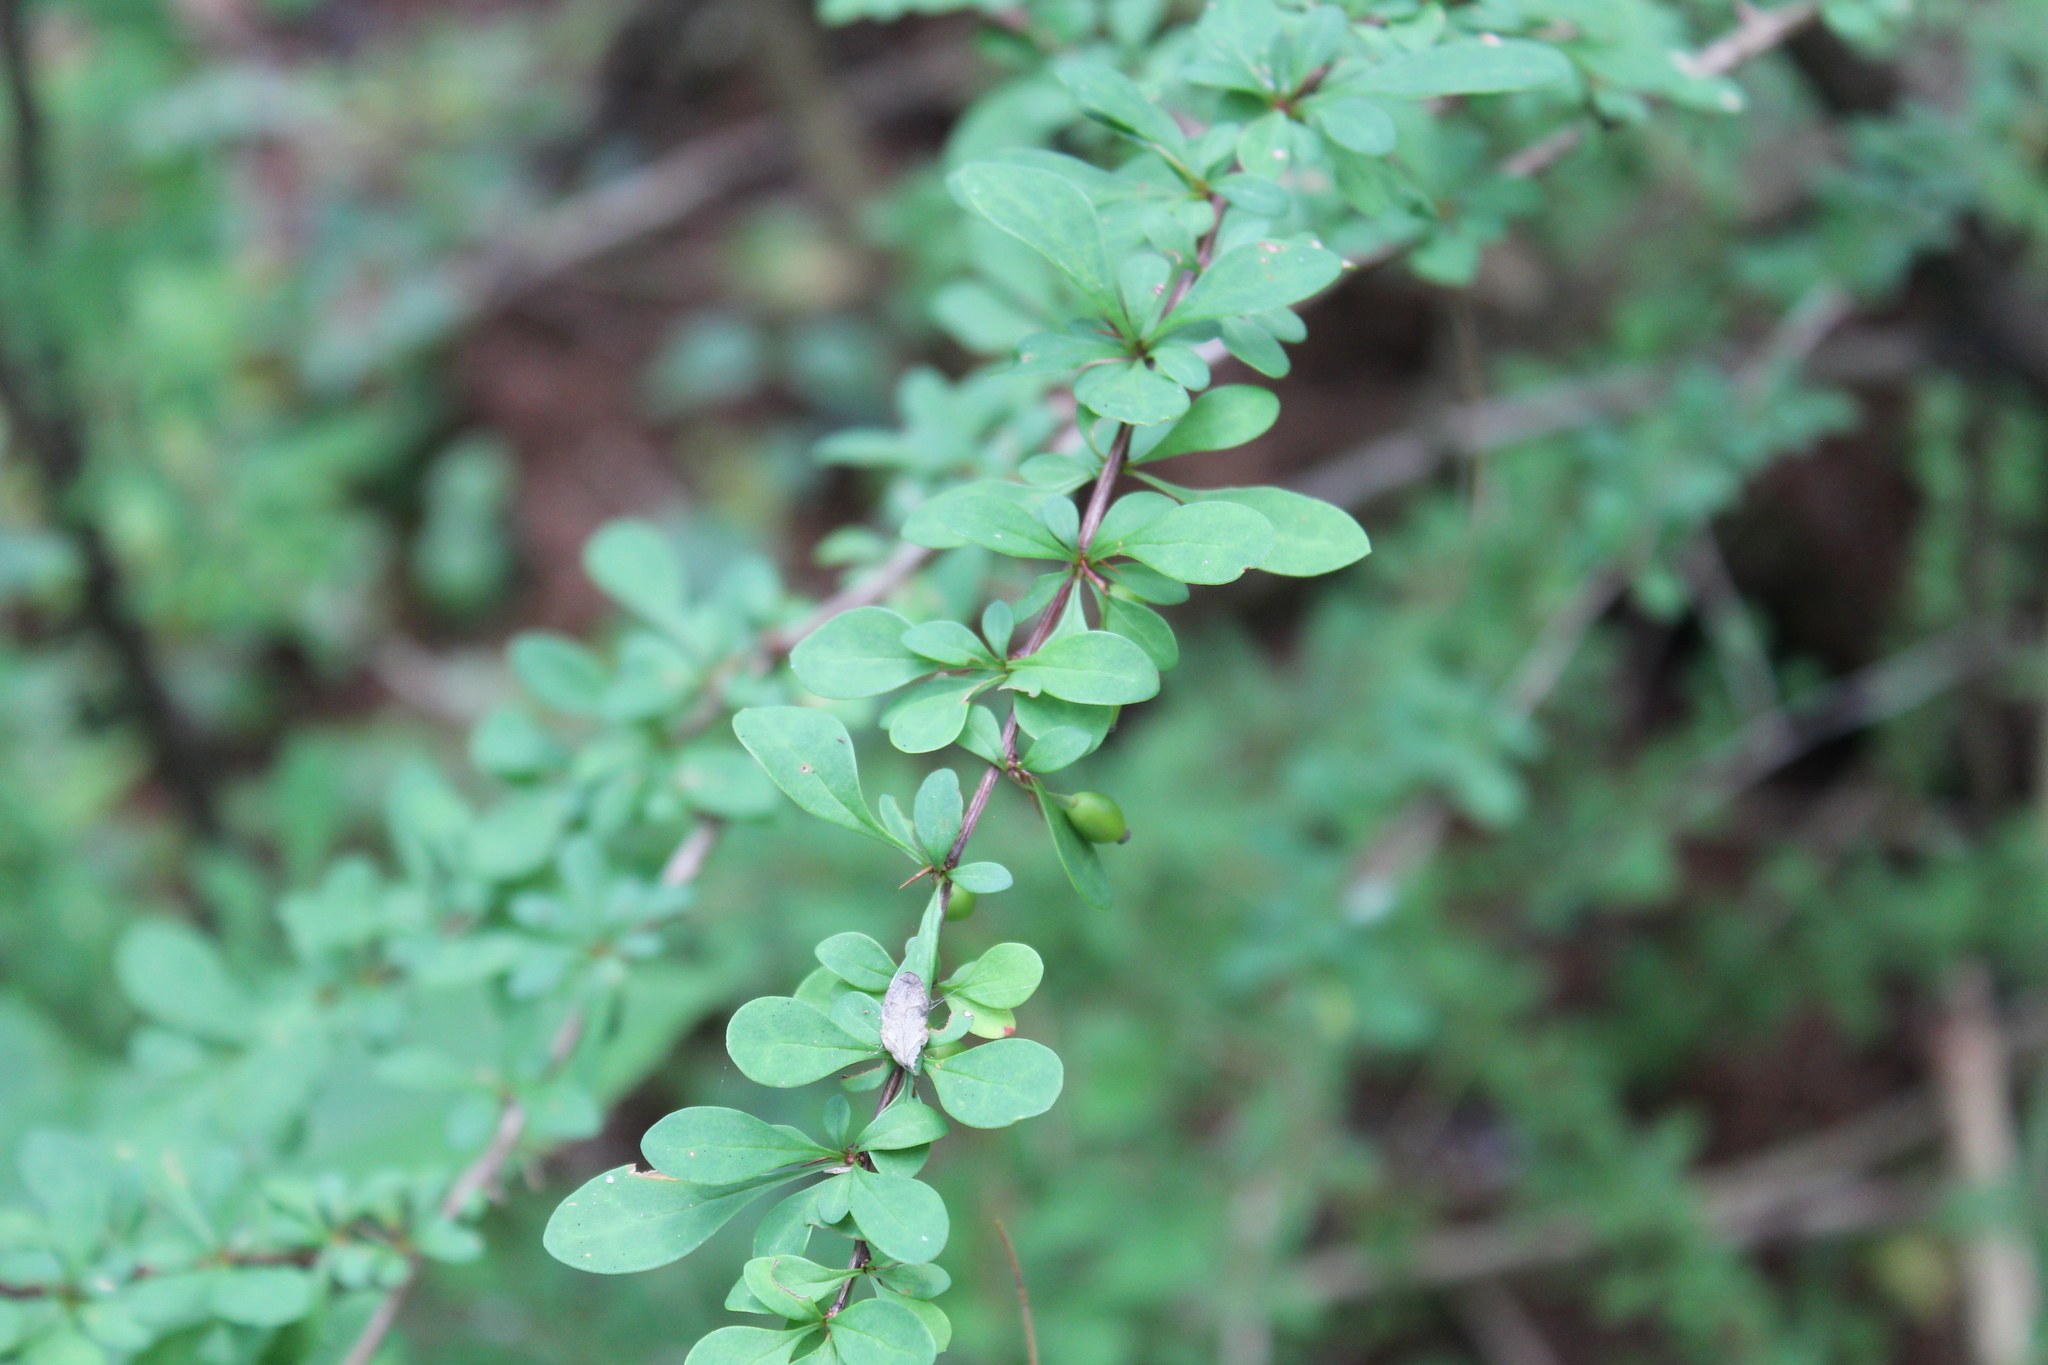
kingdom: Plantae
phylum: Tracheophyta
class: Magnoliopsida
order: Ranunculales
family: Berberidaceae
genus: Berberis
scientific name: Berberis thunbergii
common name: Japanese barberry
